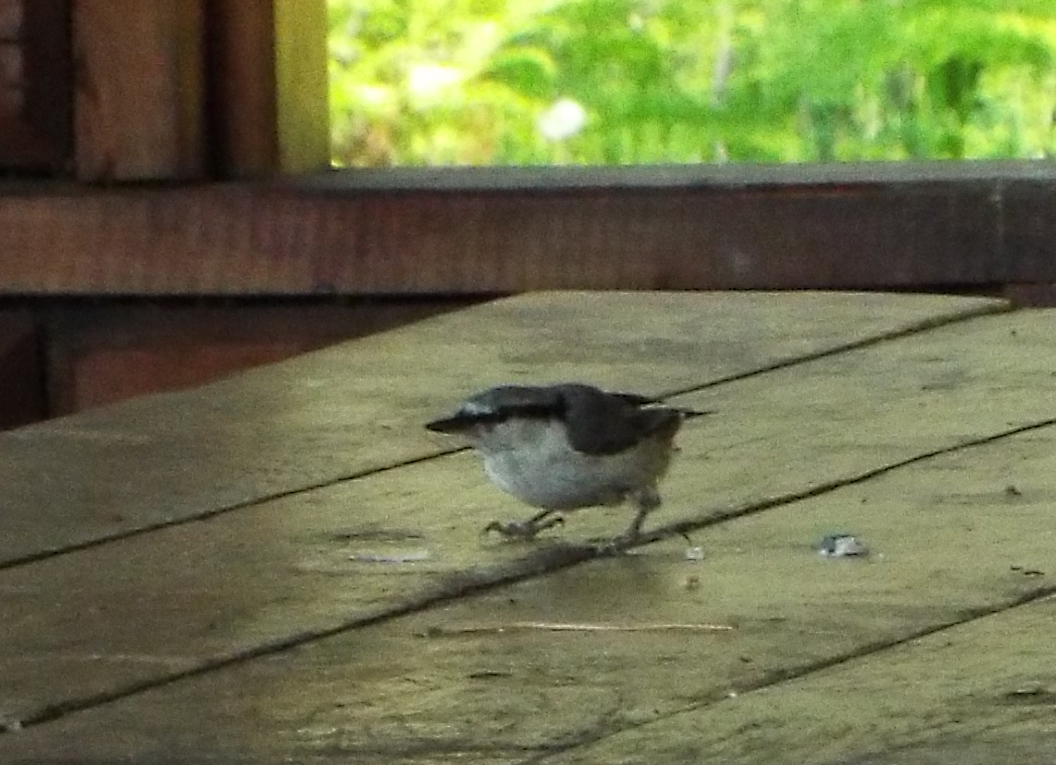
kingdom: Animalia
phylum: Chordata
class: Aves
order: Passeriformes
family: Sittidae
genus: Sitta
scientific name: Sitta europaea
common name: Eurasian nuthatch
